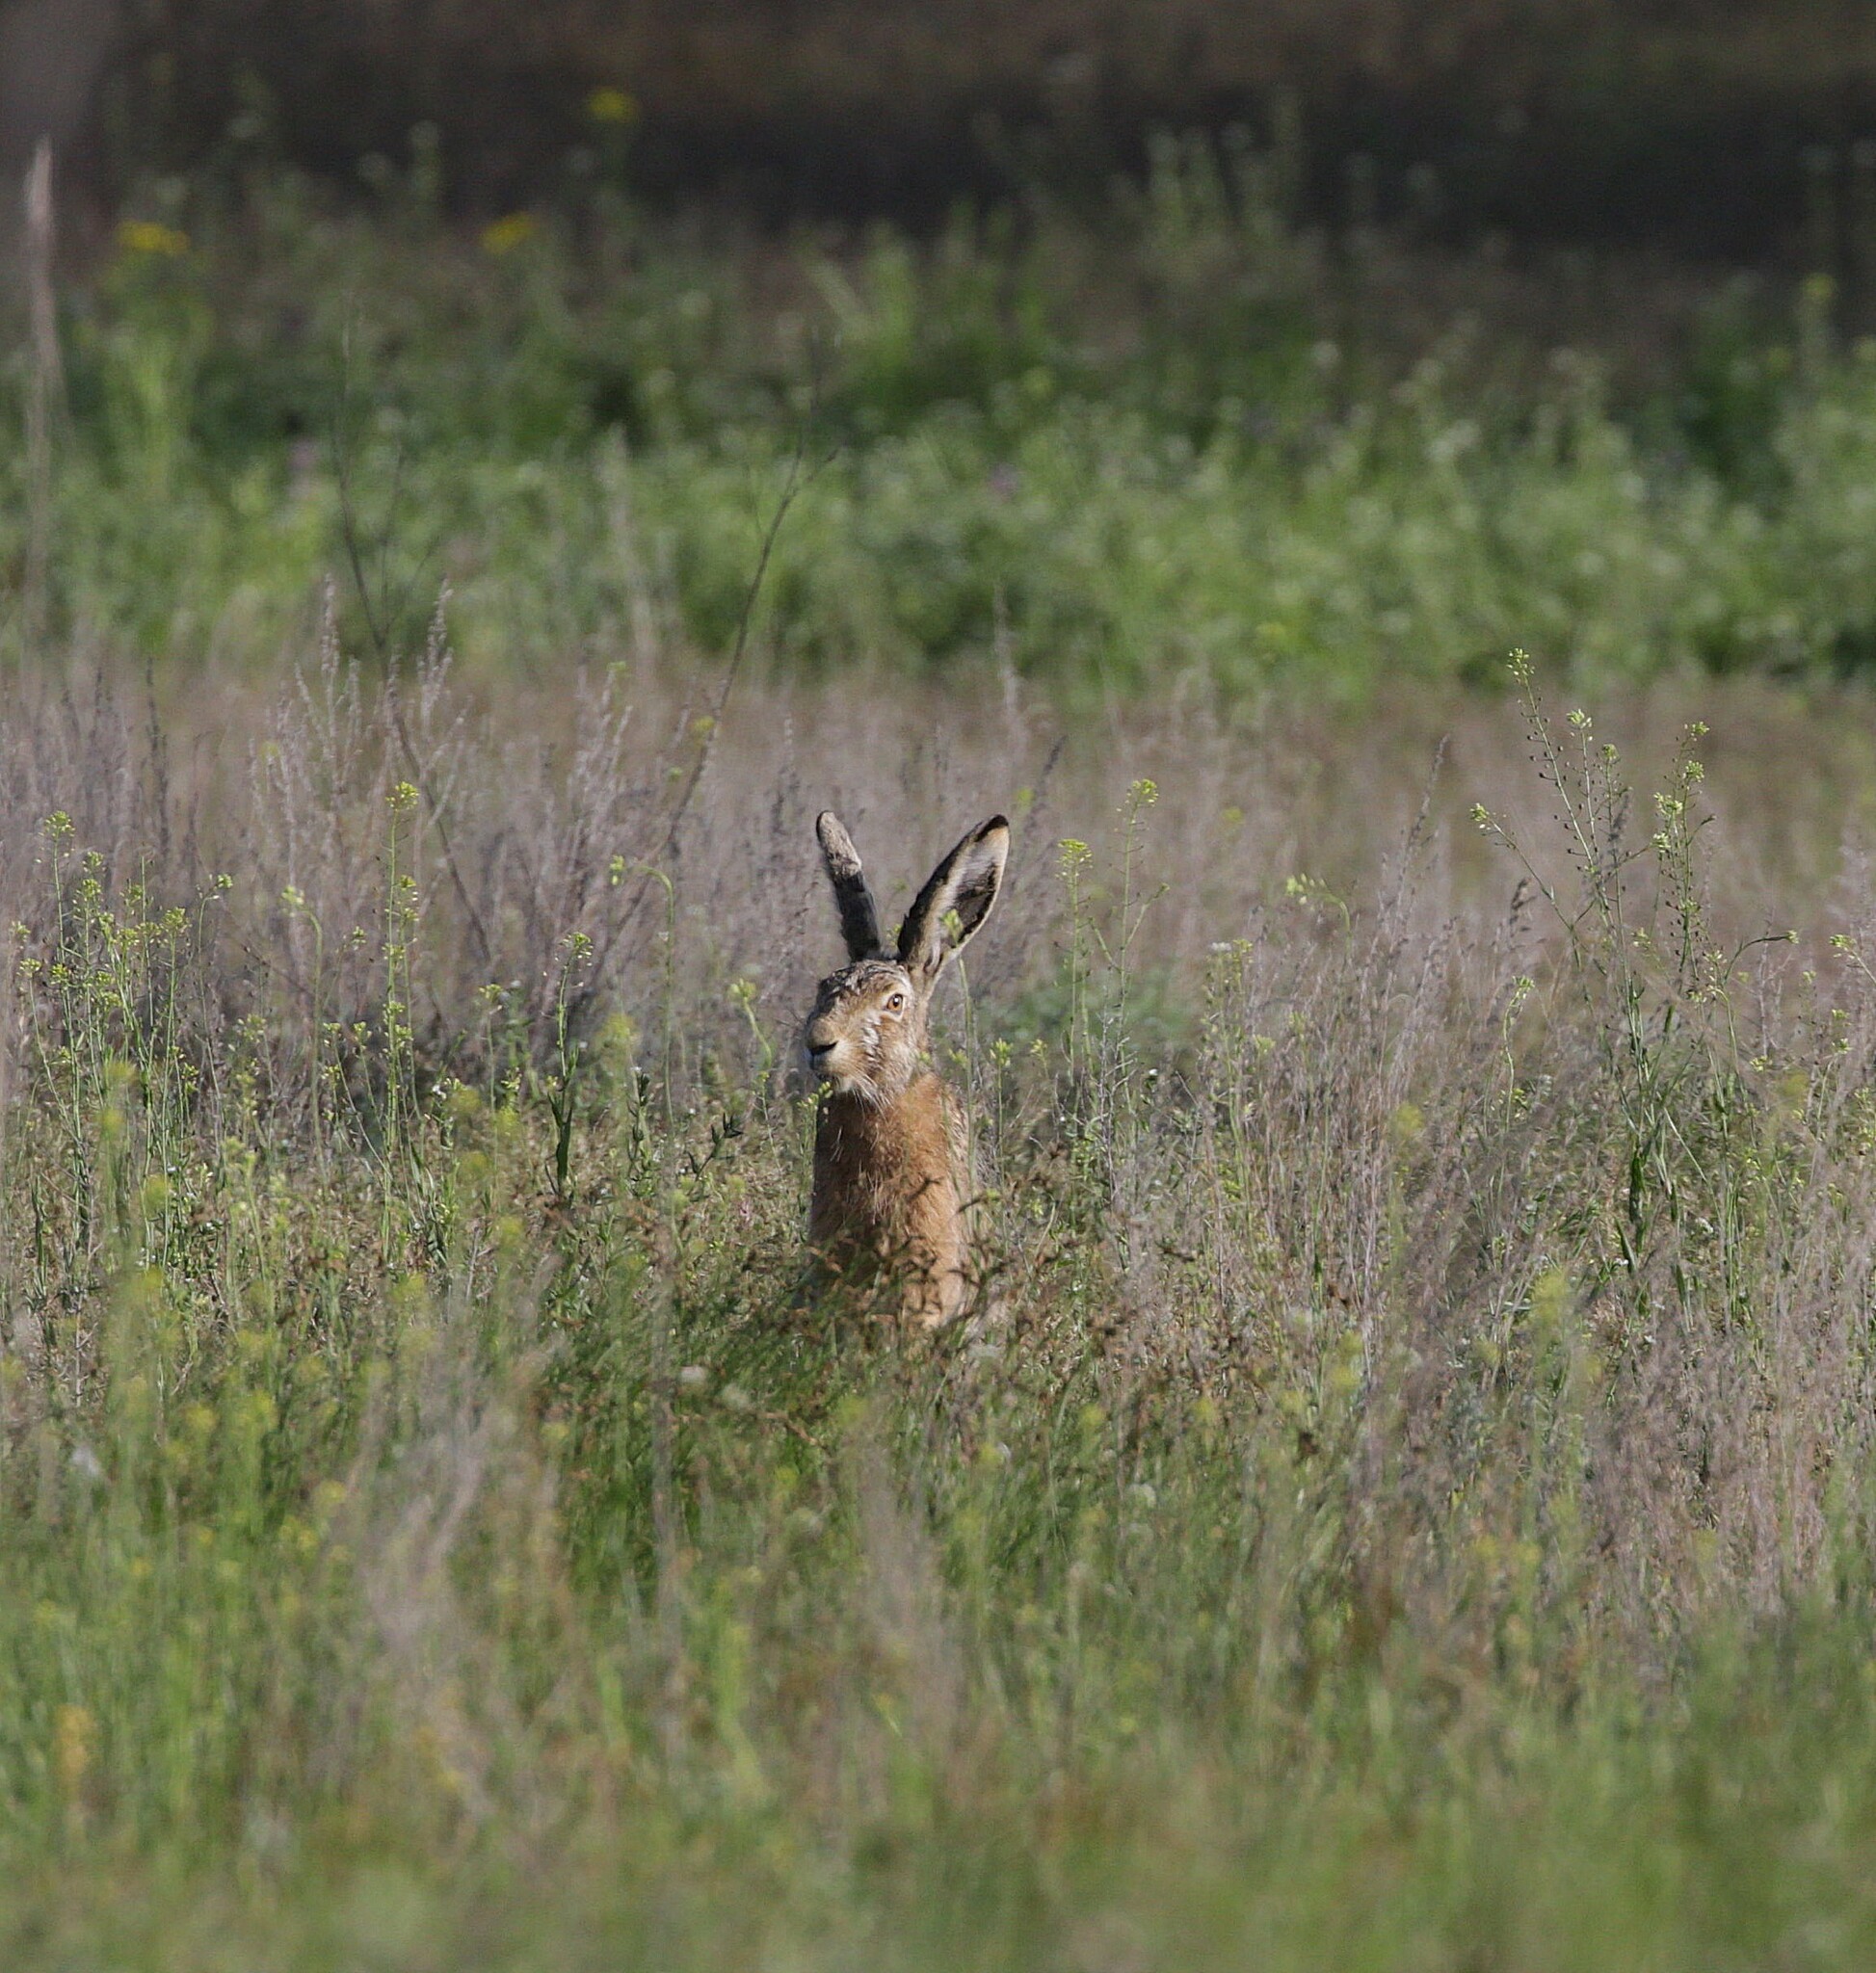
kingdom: Animalia
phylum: Chordata
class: Mammalia
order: Lagomorpha
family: Leporidae
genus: Lepus
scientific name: Lepus europaeus
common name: European hare
